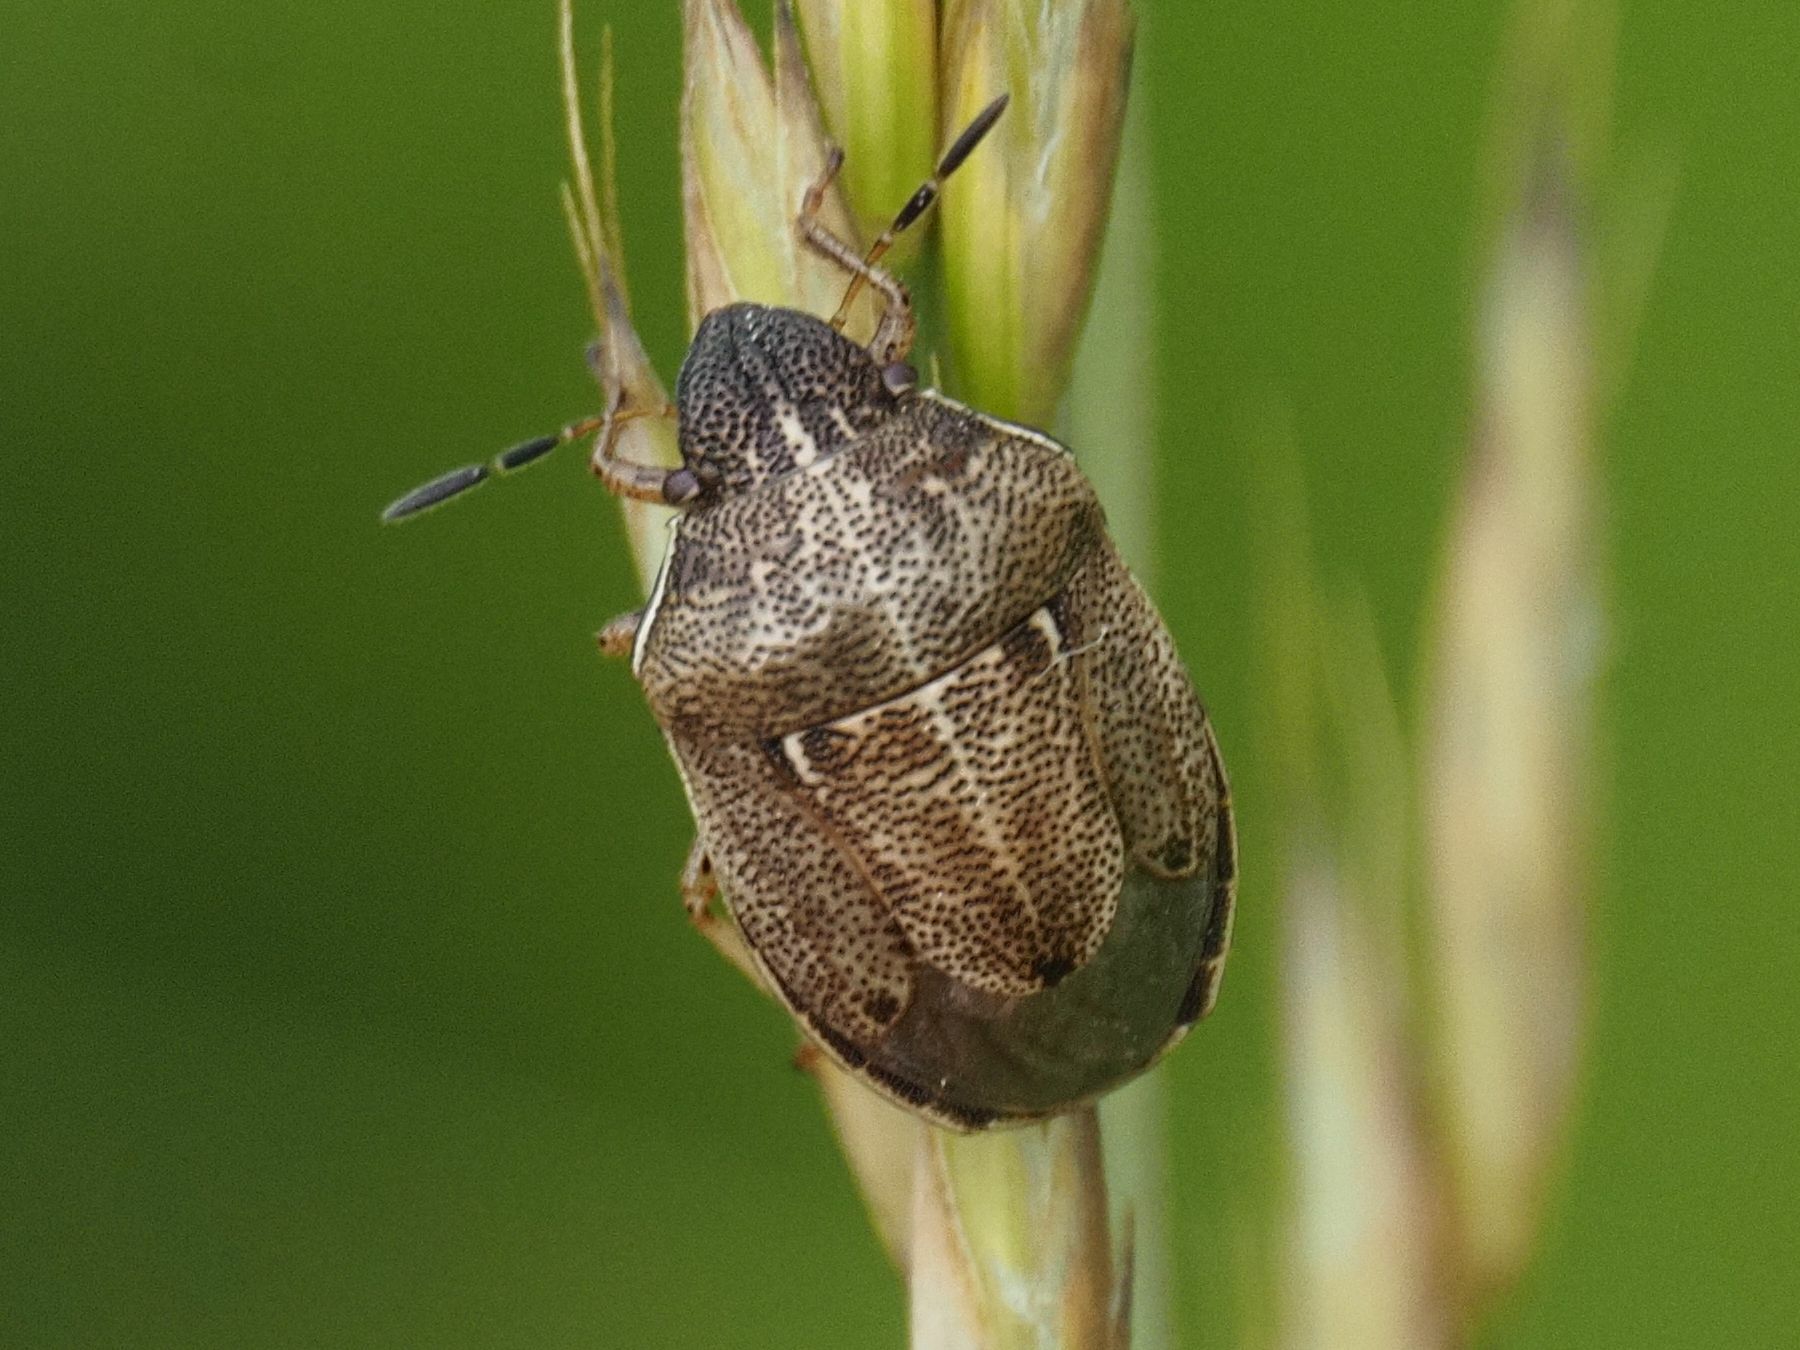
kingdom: Animalia
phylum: Arthropoda
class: Insecta
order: Hemiptera
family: Pentatomidae
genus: Neottiglossa
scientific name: Neottiglossa pusilla
